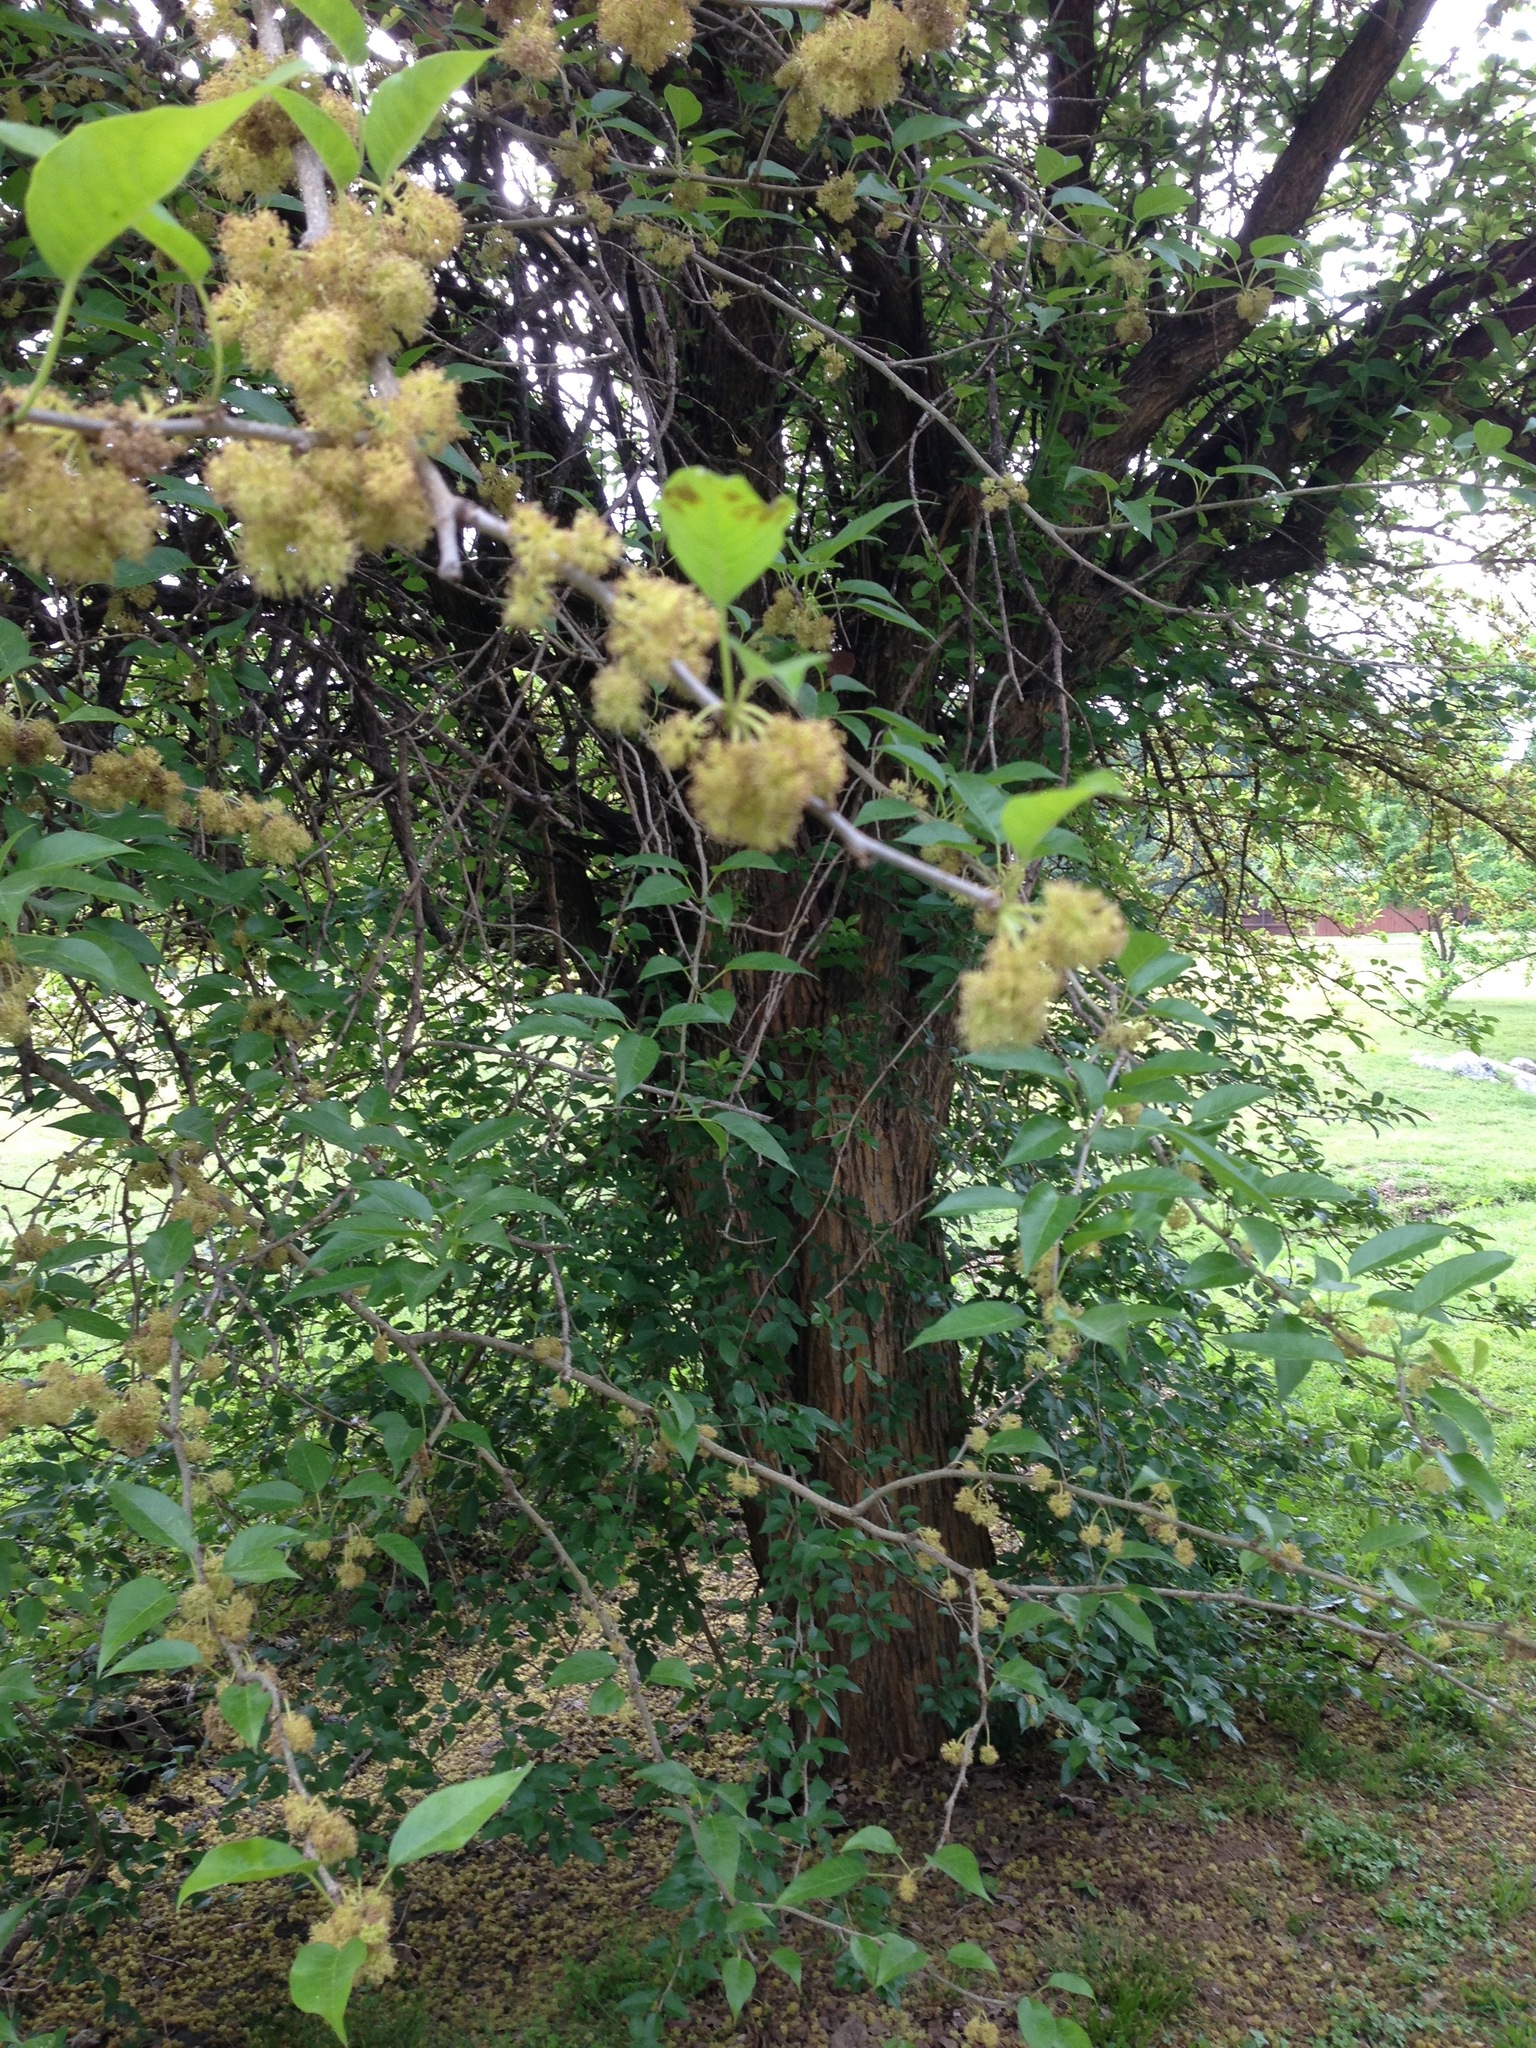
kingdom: Plantae
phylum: Tracheophyta
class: Magnoliopsida
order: Rosales
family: Moraceae
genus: Maclura
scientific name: Maclura pomifera
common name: Osage-orange
